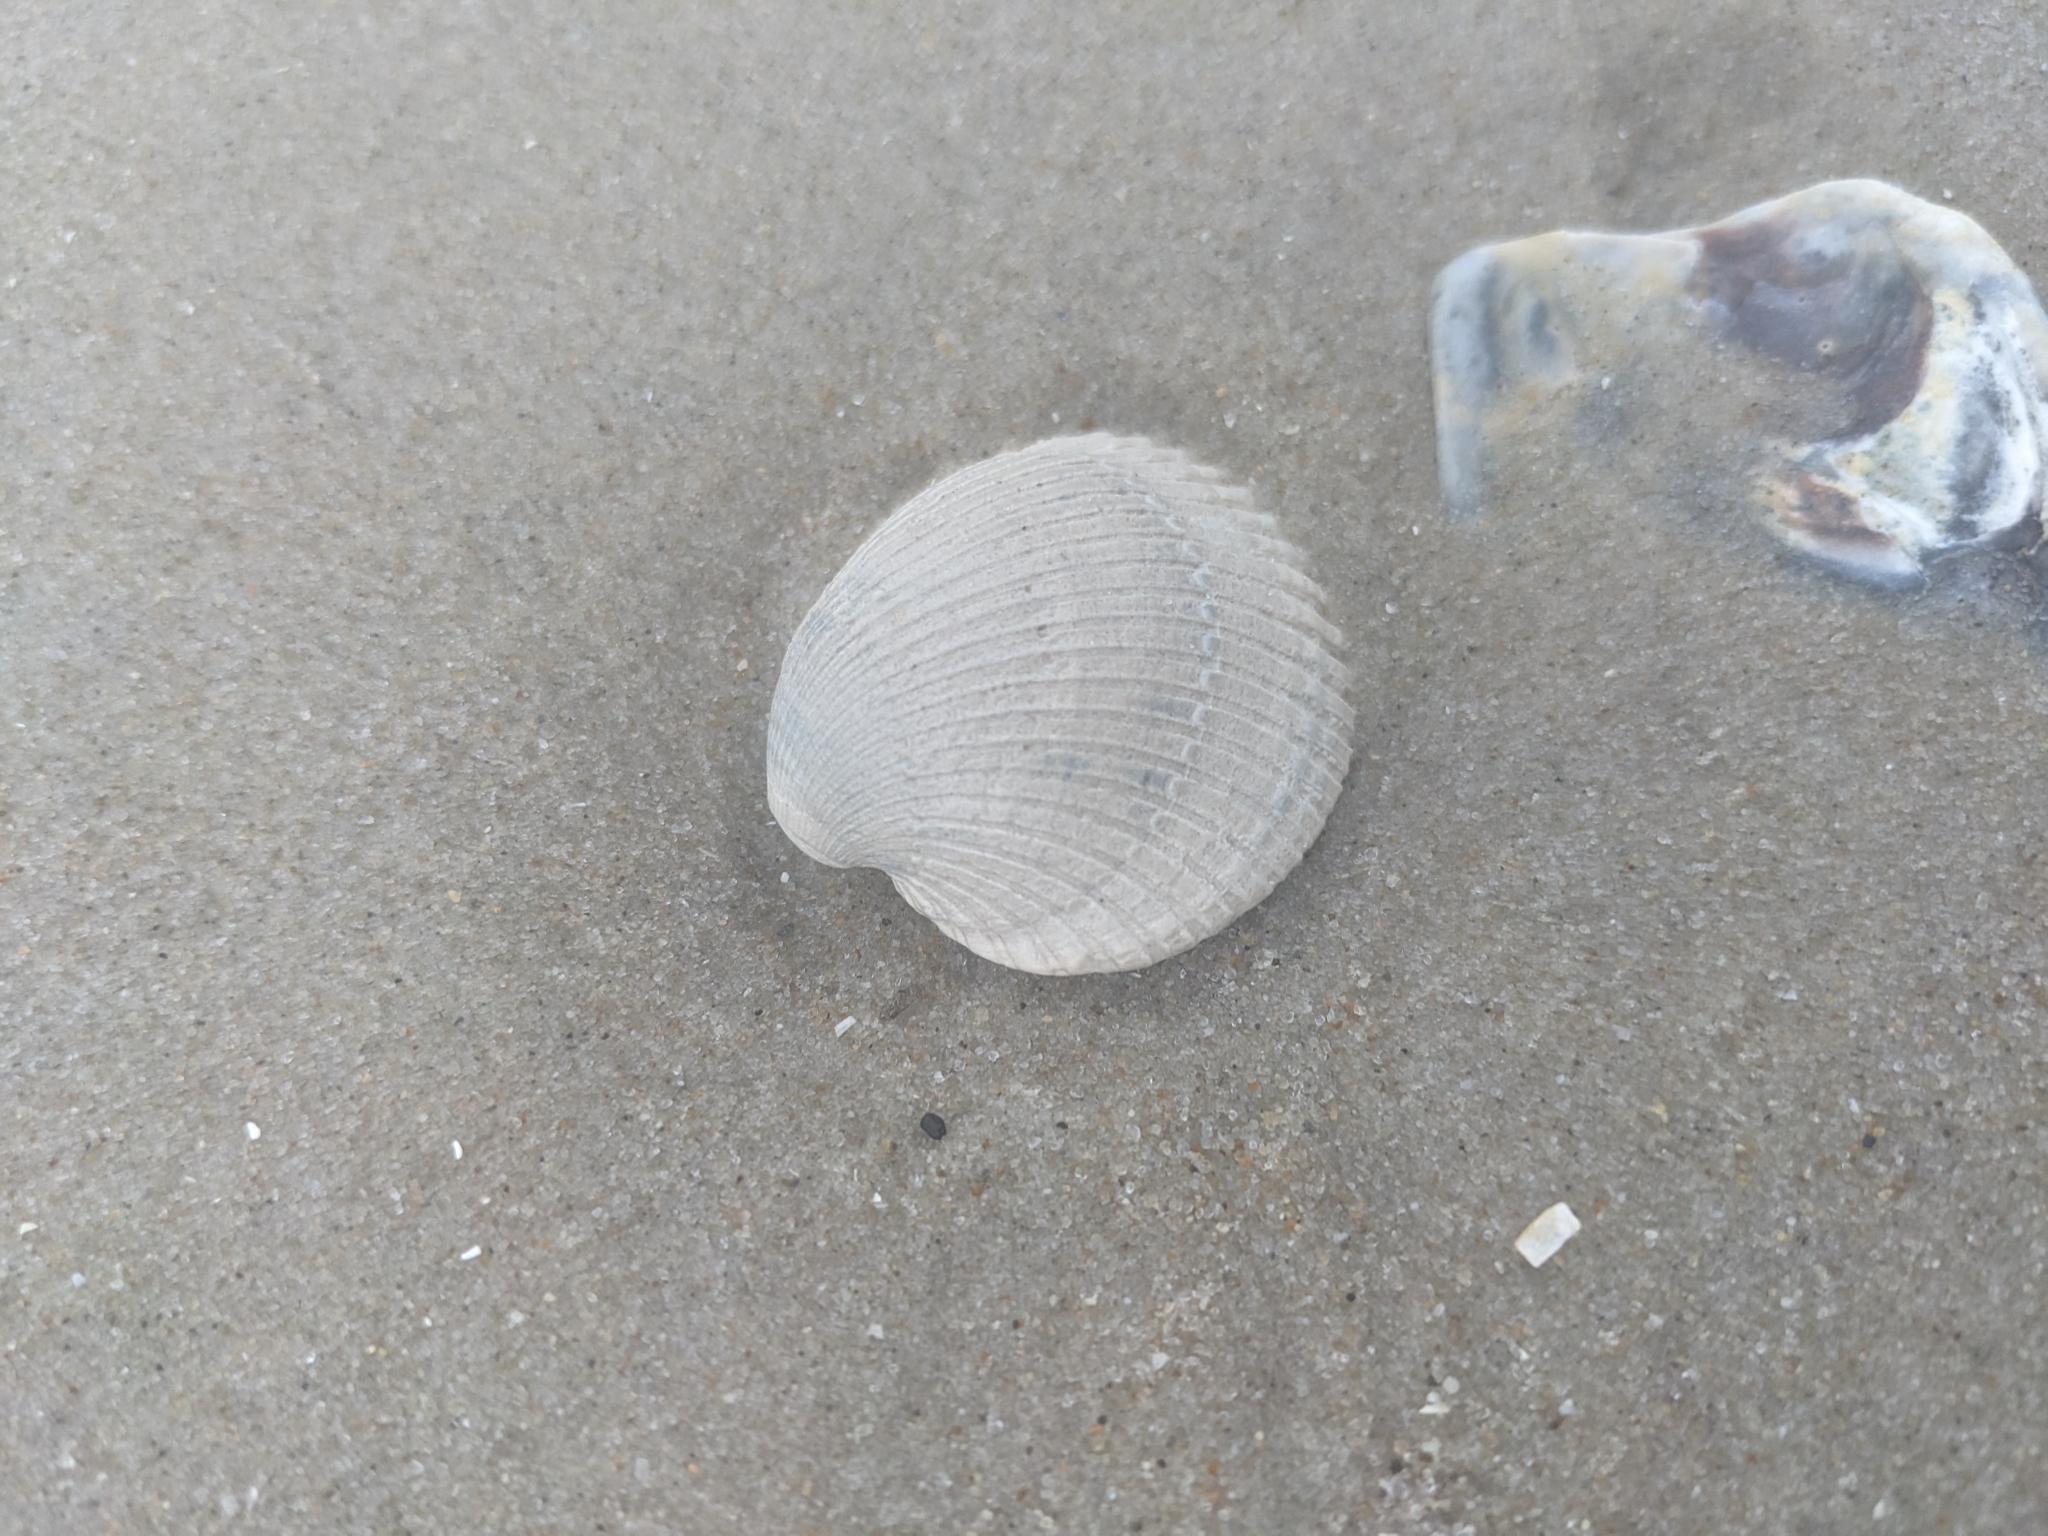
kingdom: Animalia
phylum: Mollusca
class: Bivalvia
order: Arcida
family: Arcidae
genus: Lunarca
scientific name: Lunarca ovalis
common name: Blood ark
